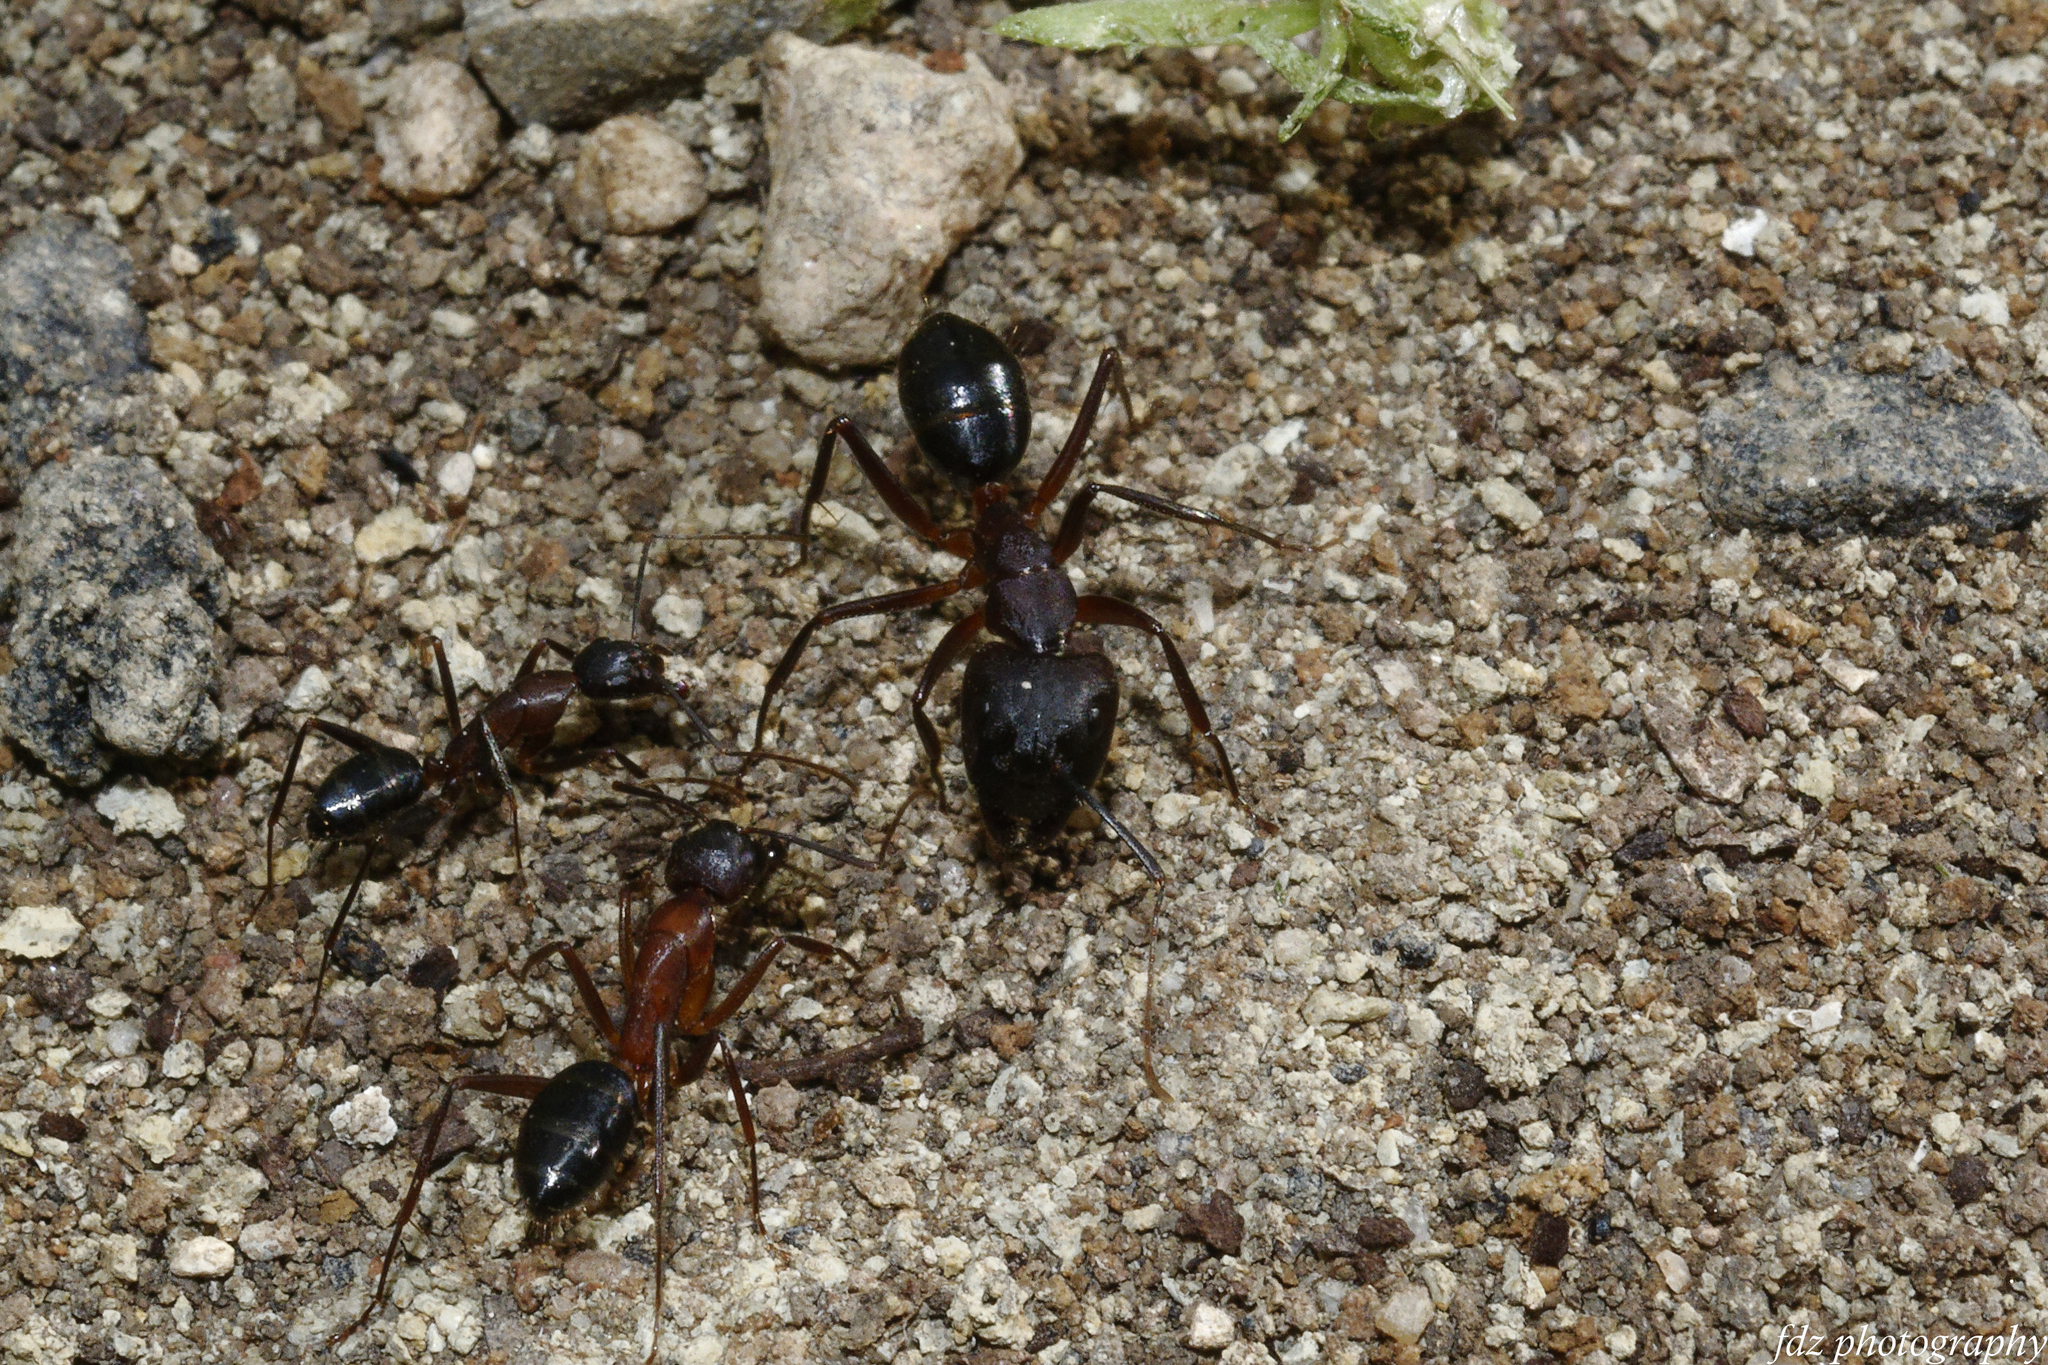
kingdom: Animalia
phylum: Arthropoda
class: Insecta
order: Hymenoptera
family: Formicidae
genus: Camponotus
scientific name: Camponotus barbaricus
